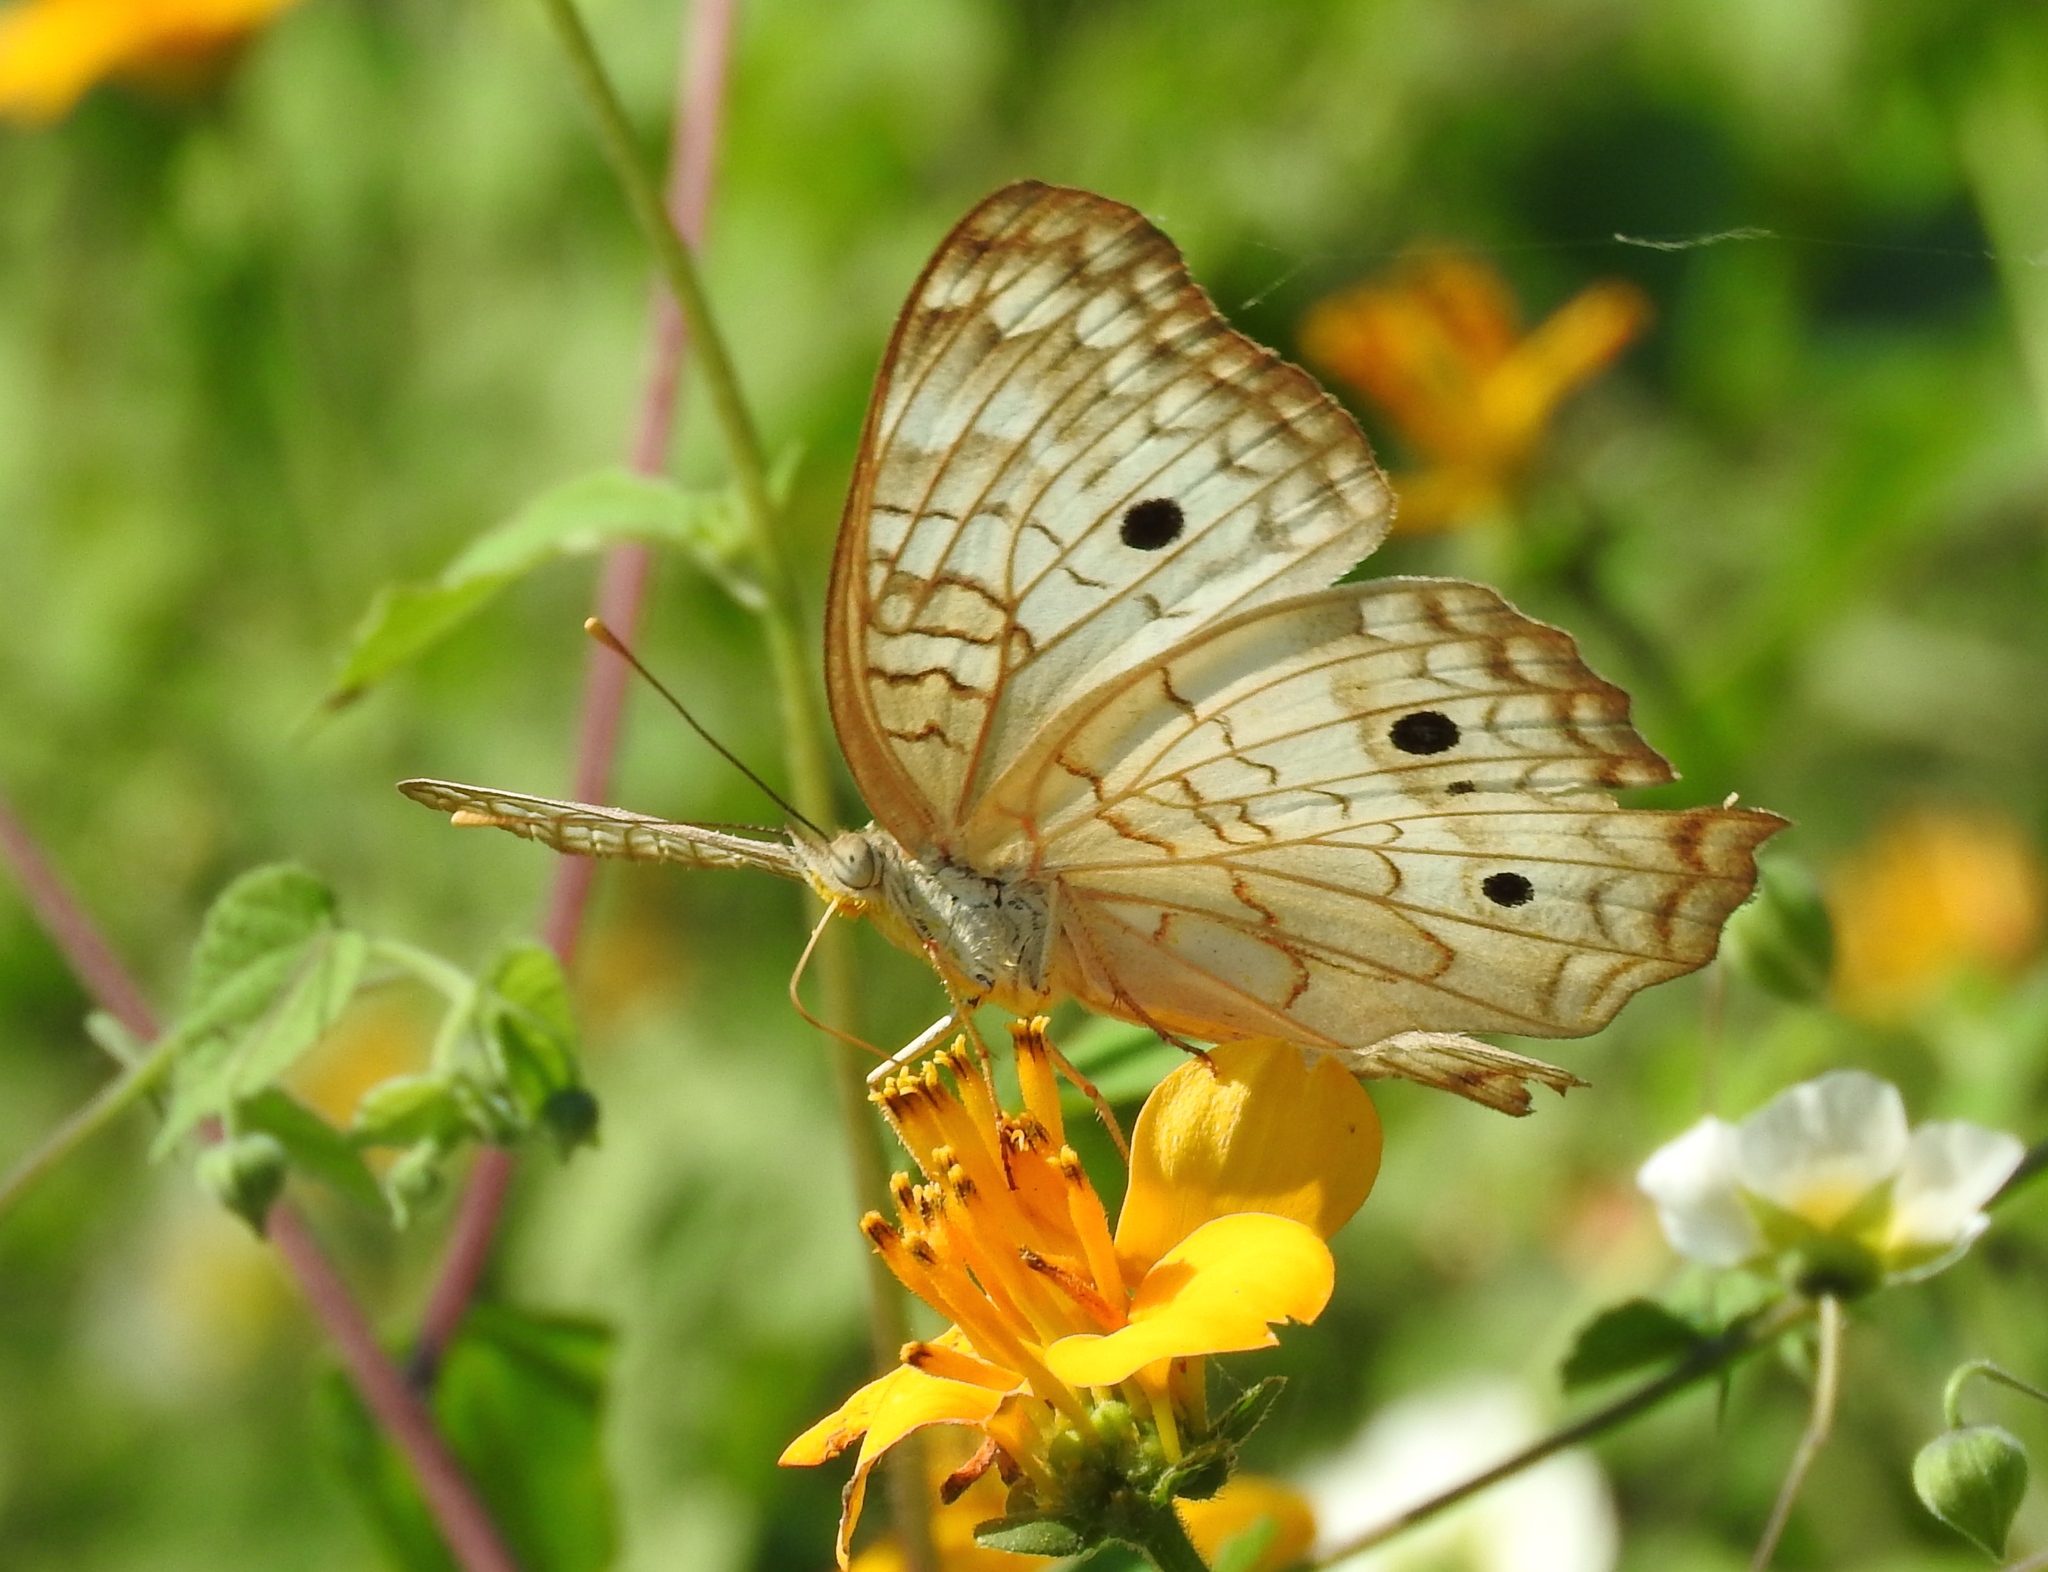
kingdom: Animalia
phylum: Arthropoda
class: Insecta
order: Lepidoptera
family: Nymphalidae
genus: Anartia
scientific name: Anartia jatrophae
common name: White peacock
